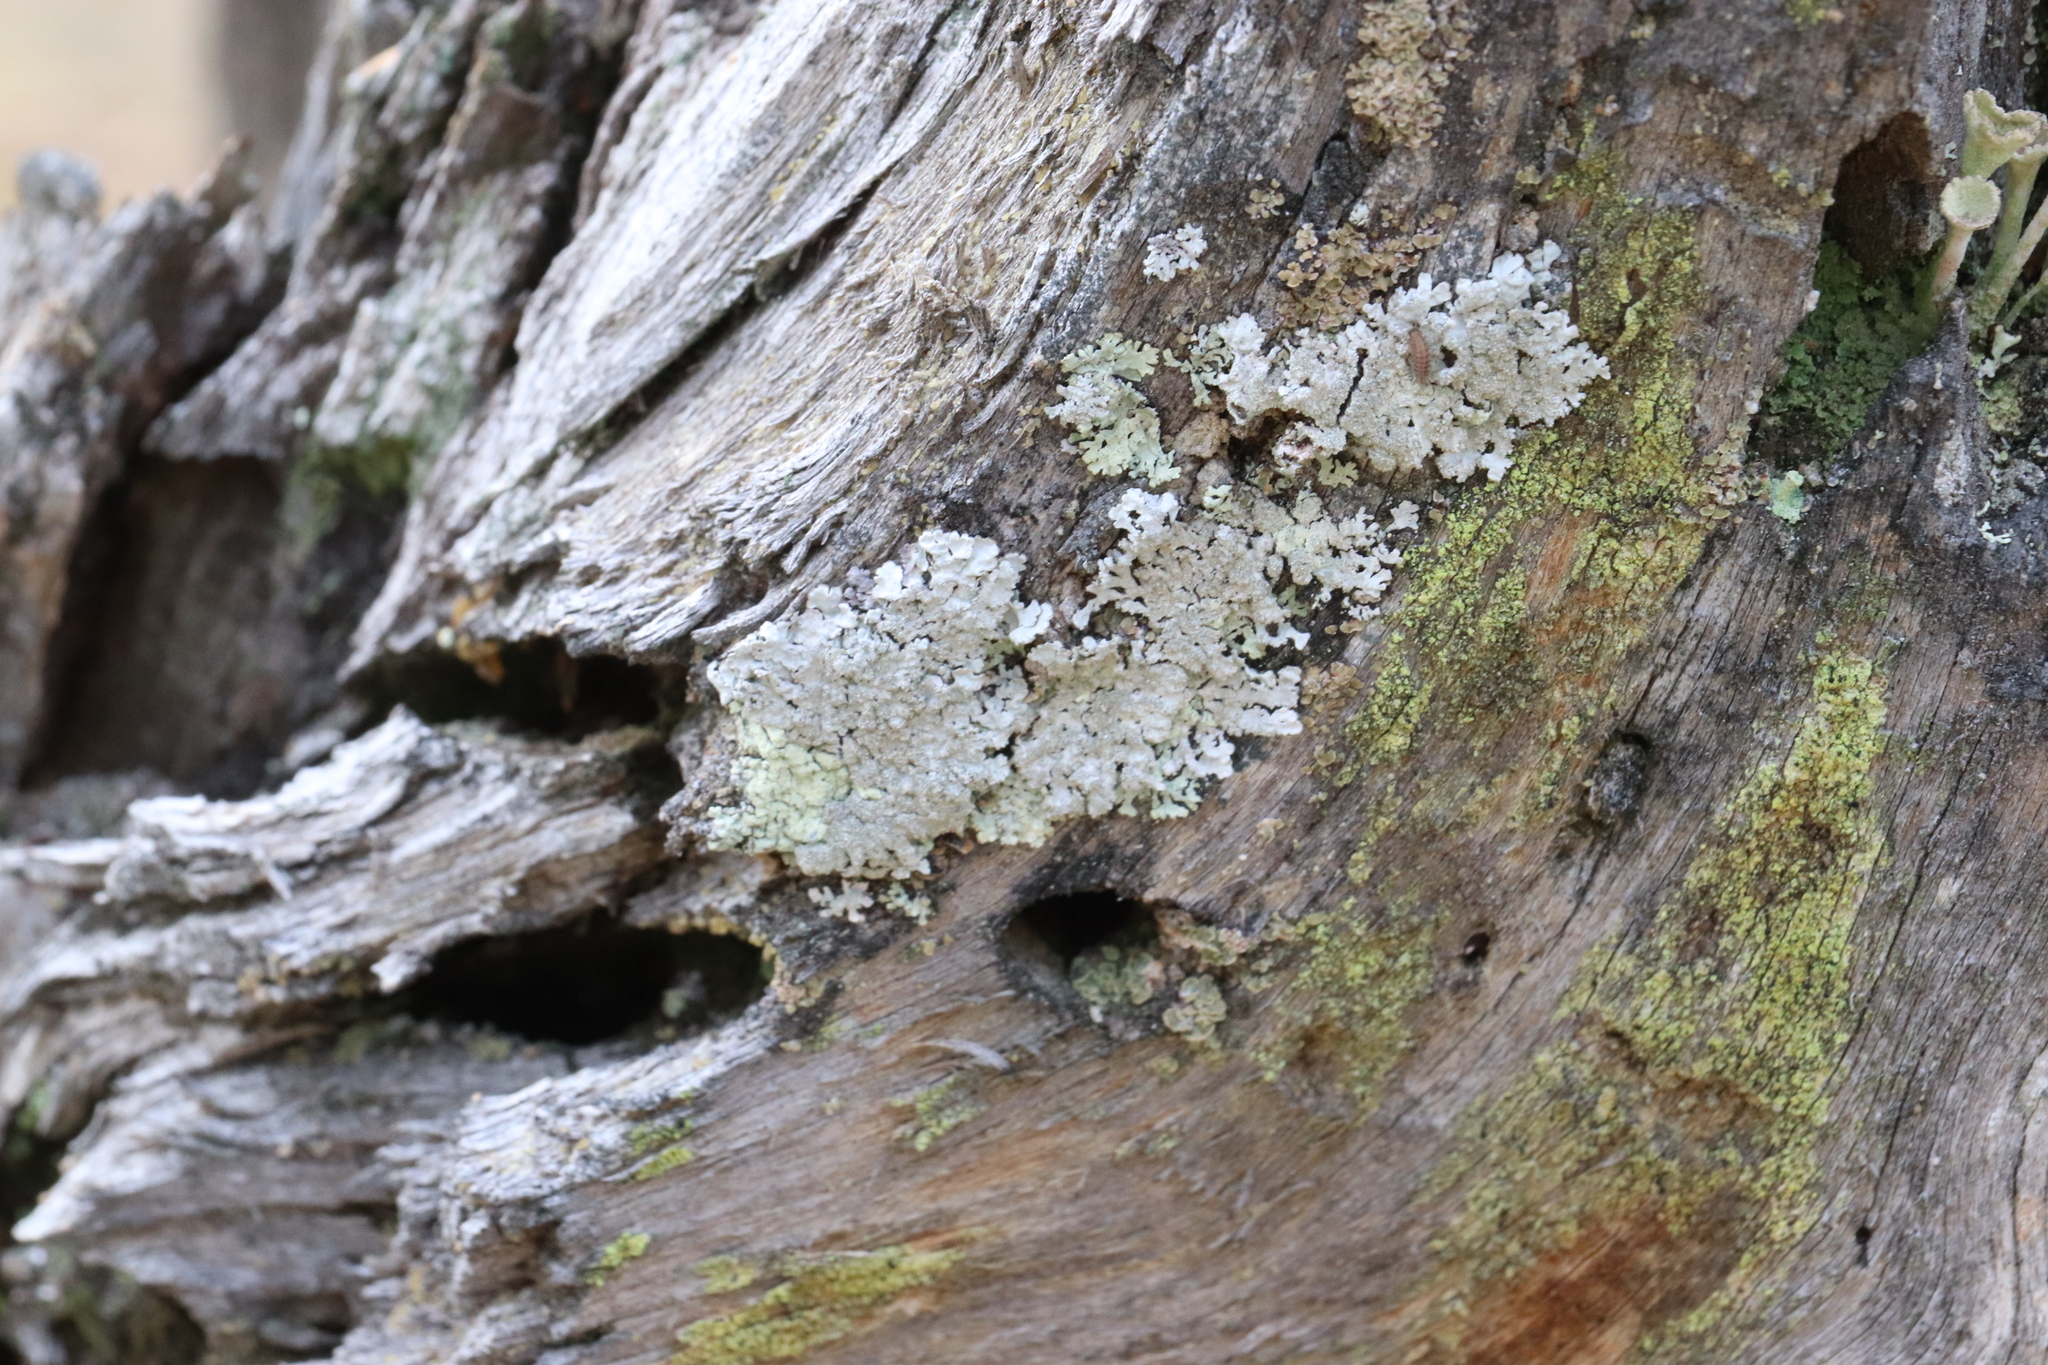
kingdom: Fungi
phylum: Ascomycota
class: Lecanoromycetes
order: Lecanorales
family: Parmeliaceae
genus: Imshaugia
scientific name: Imshaugia aleurites
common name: Salted starburst lichen
